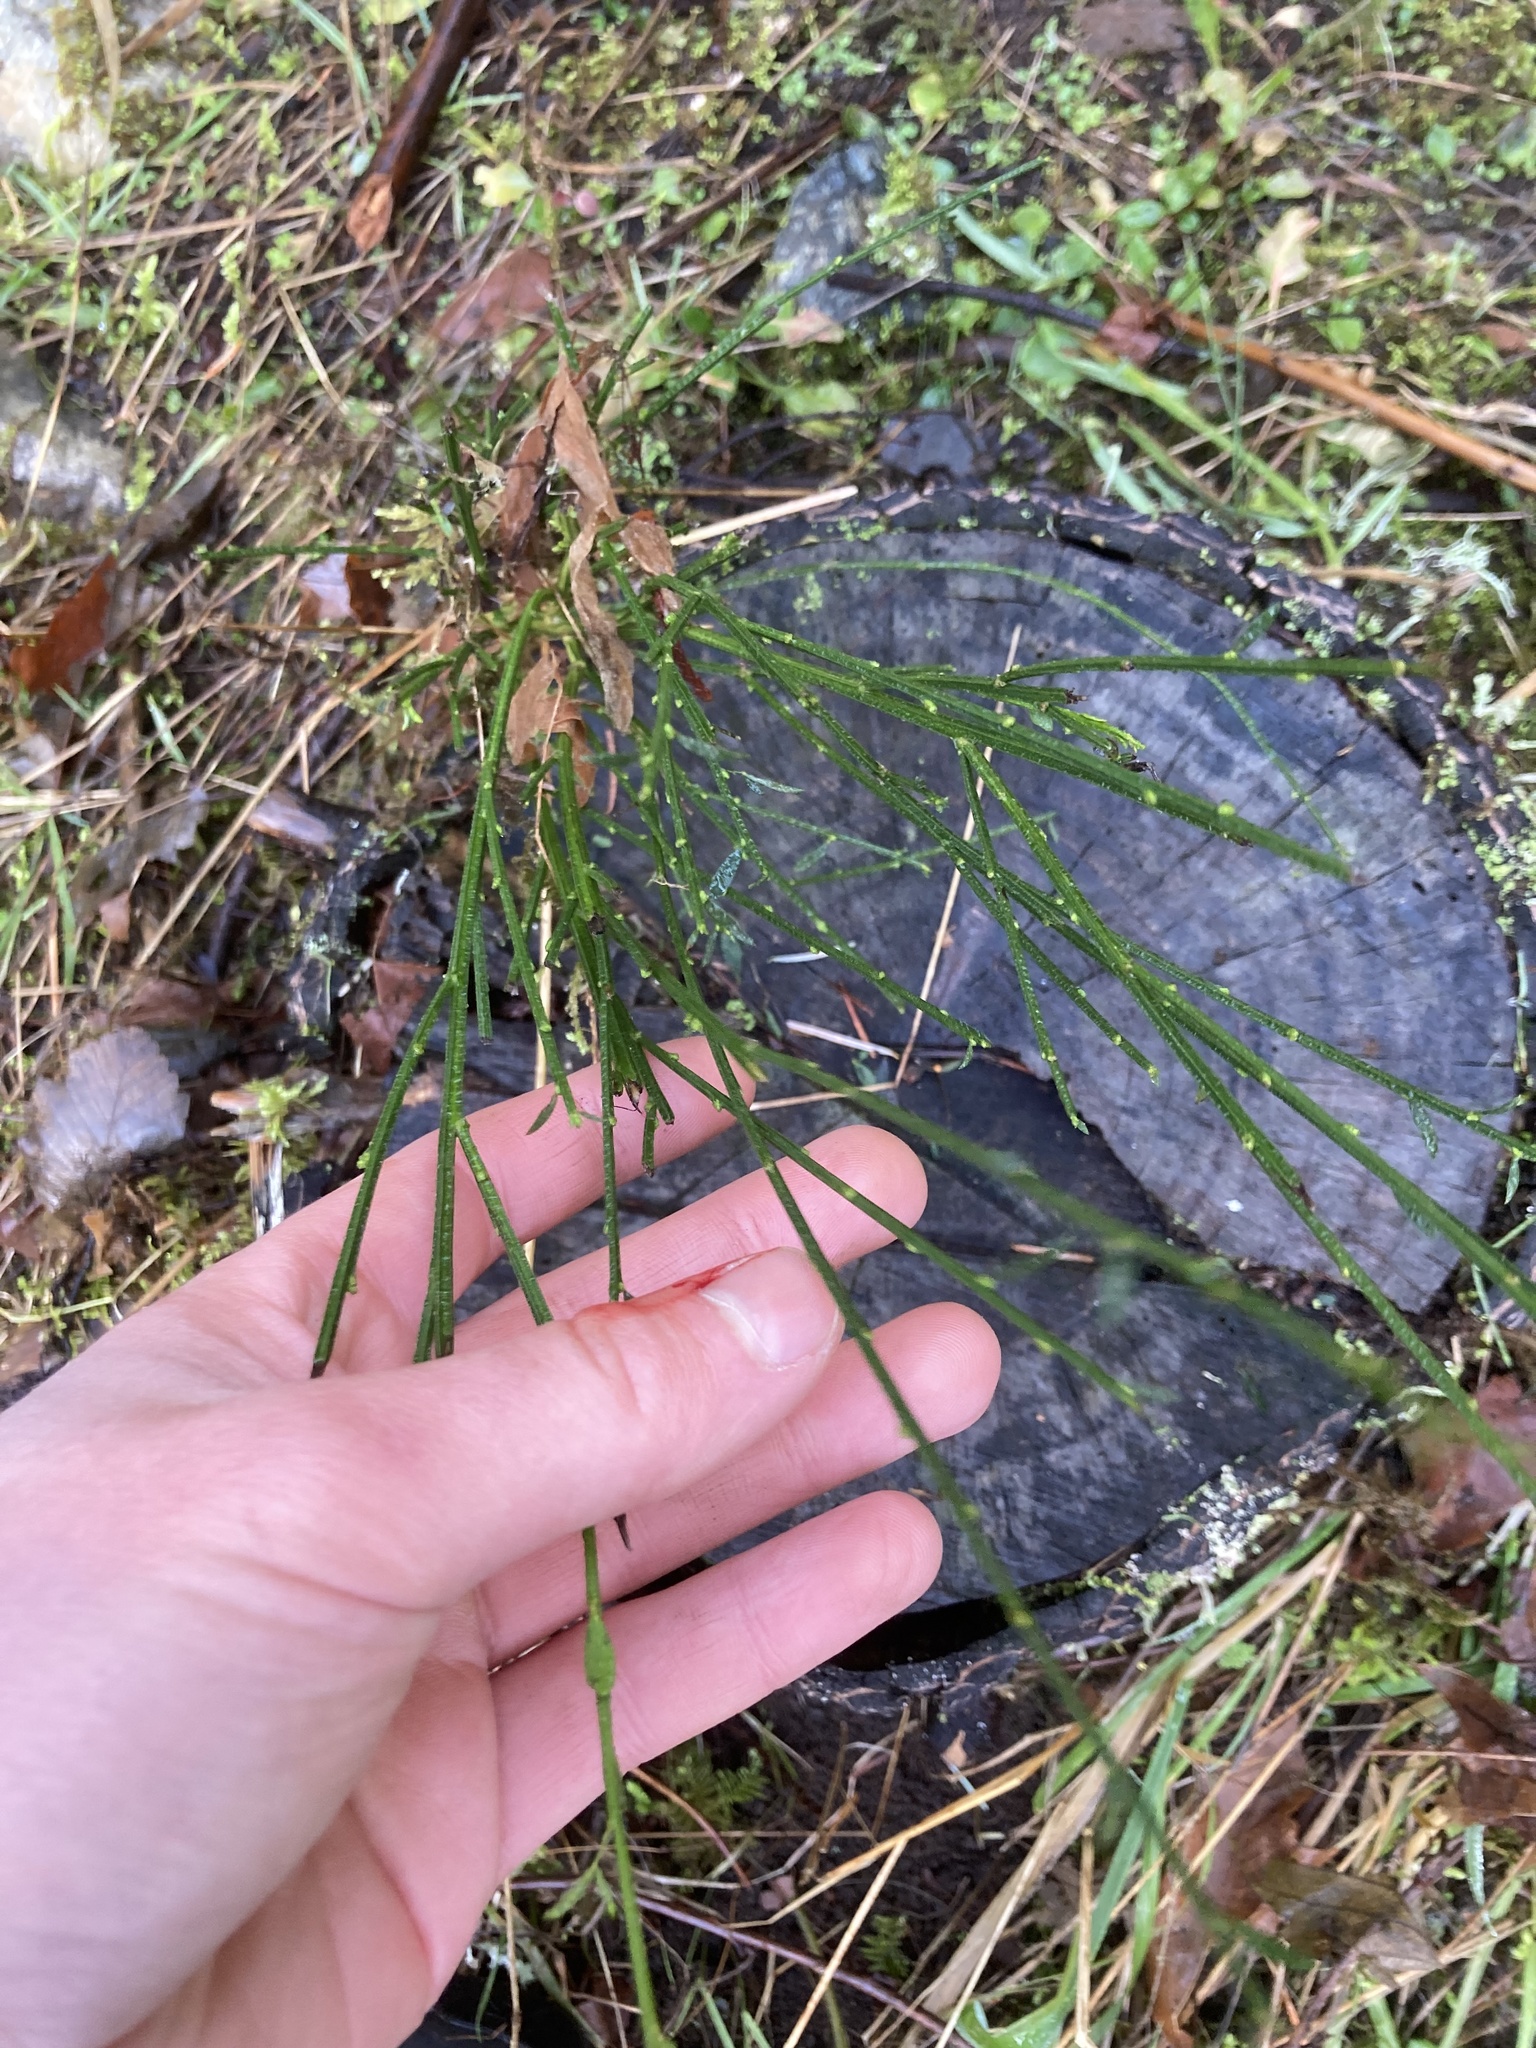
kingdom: Plantae
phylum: Tracheophyta
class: Magnoliopsida
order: Fabales
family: Fabaceae
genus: Cytisus
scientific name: Cytisus scoparius
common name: Scotch broom
